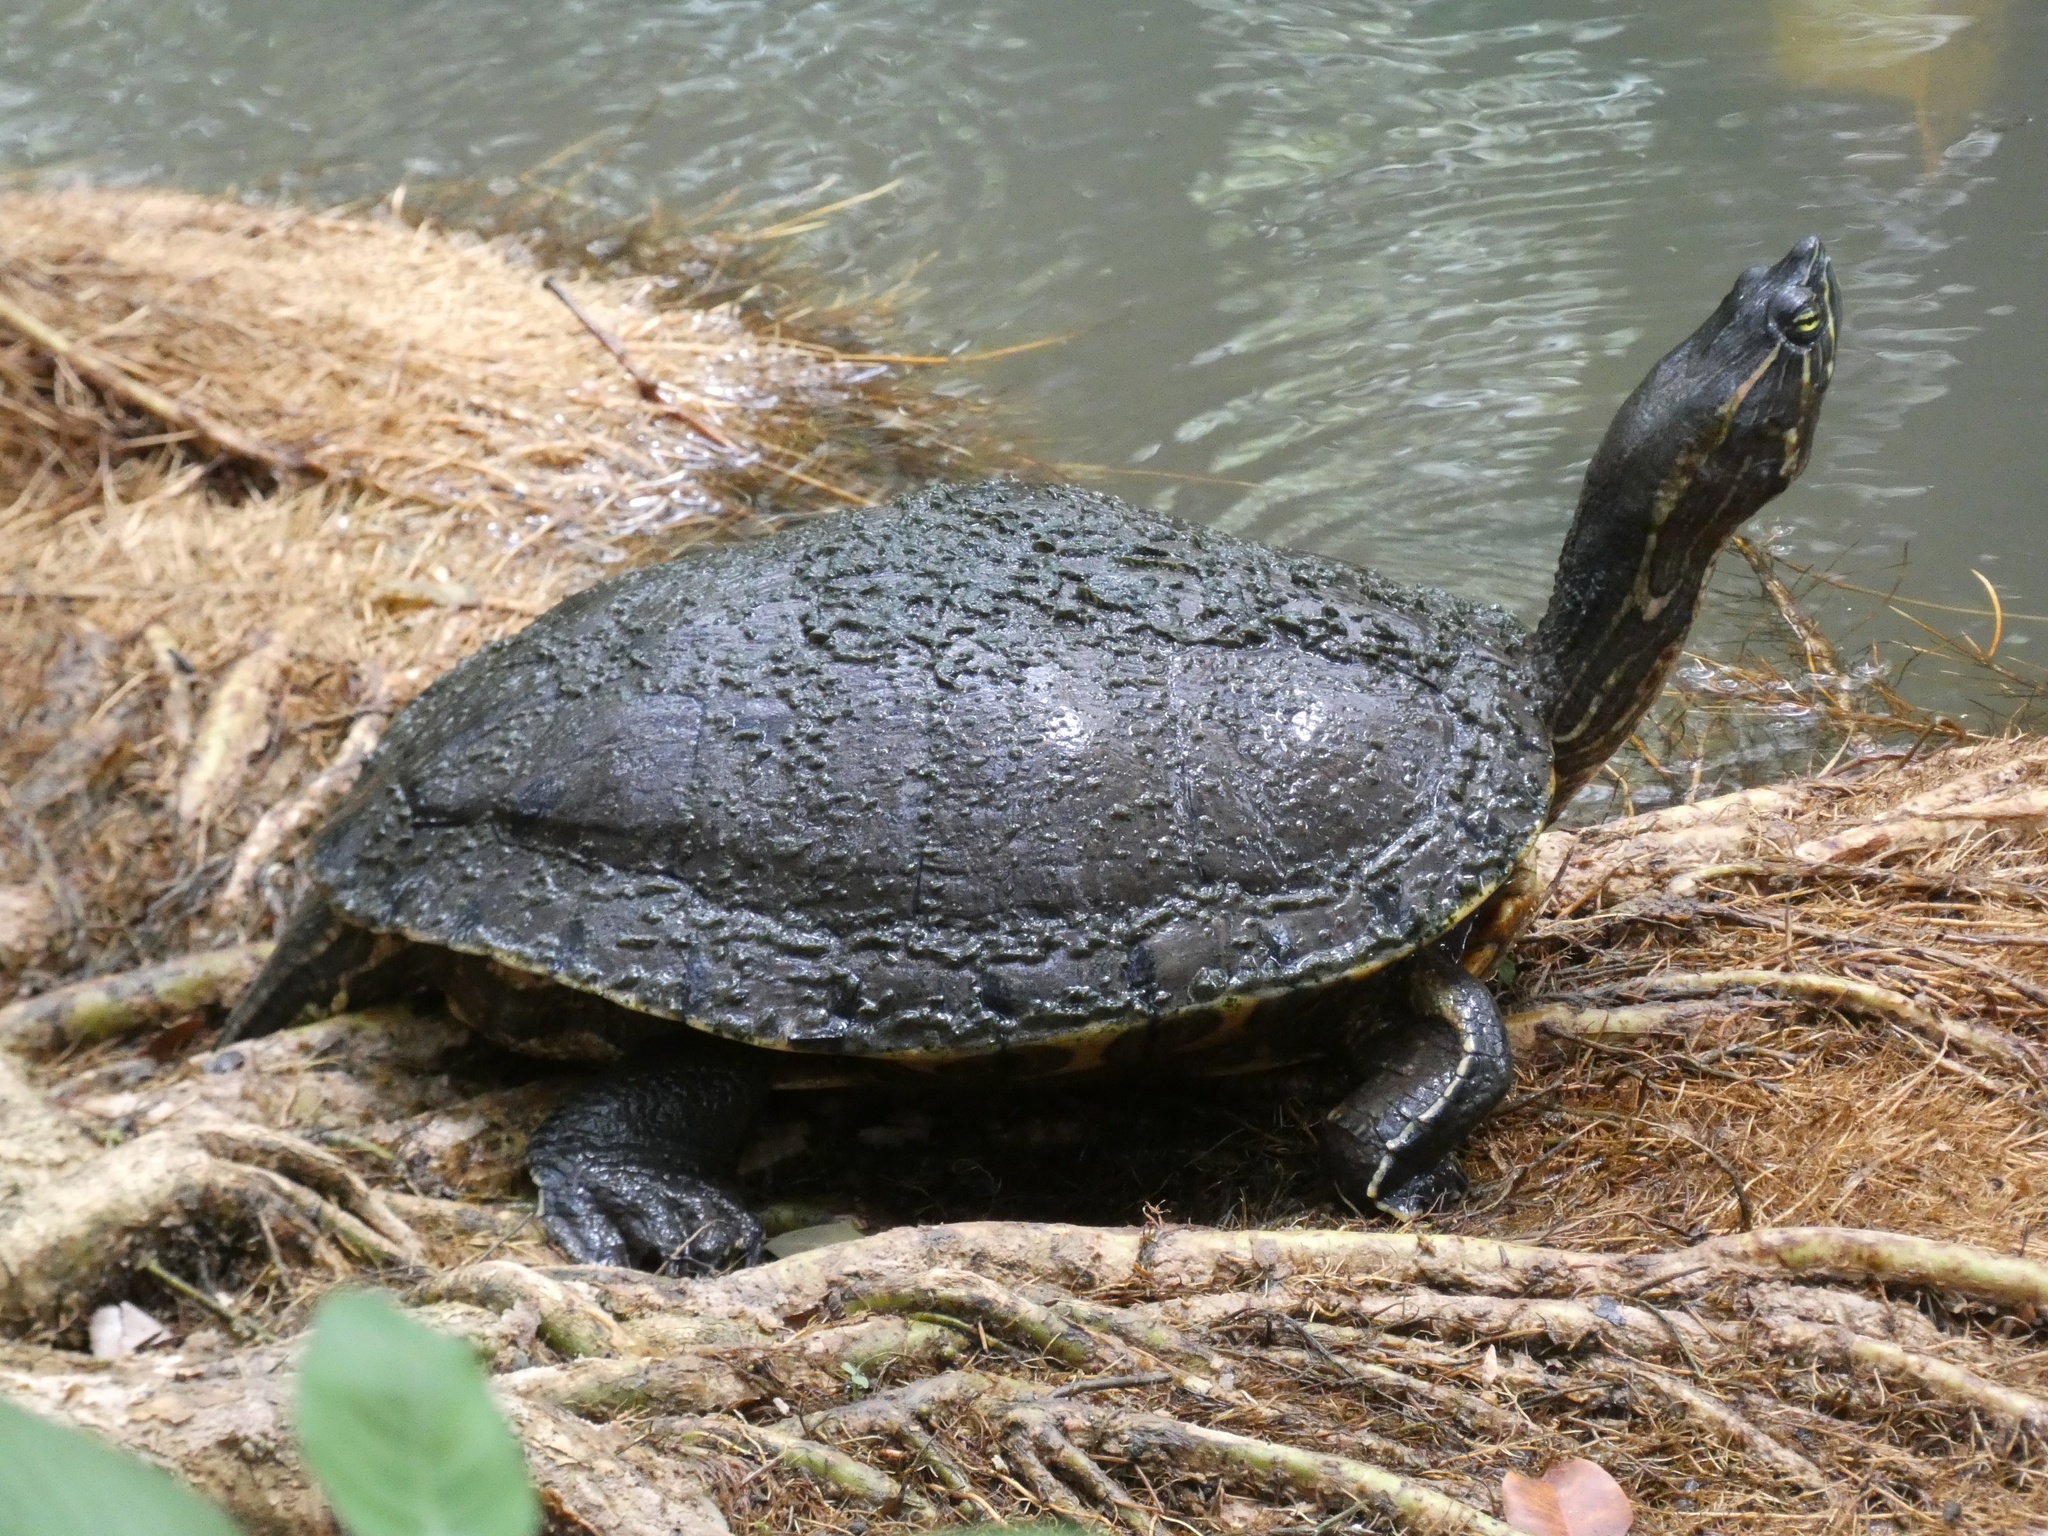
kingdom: Animalia
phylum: Chordata
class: Testudines
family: Emydidae
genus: Trachemys
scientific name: Trachemys venusta
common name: Mesoamerican slider
